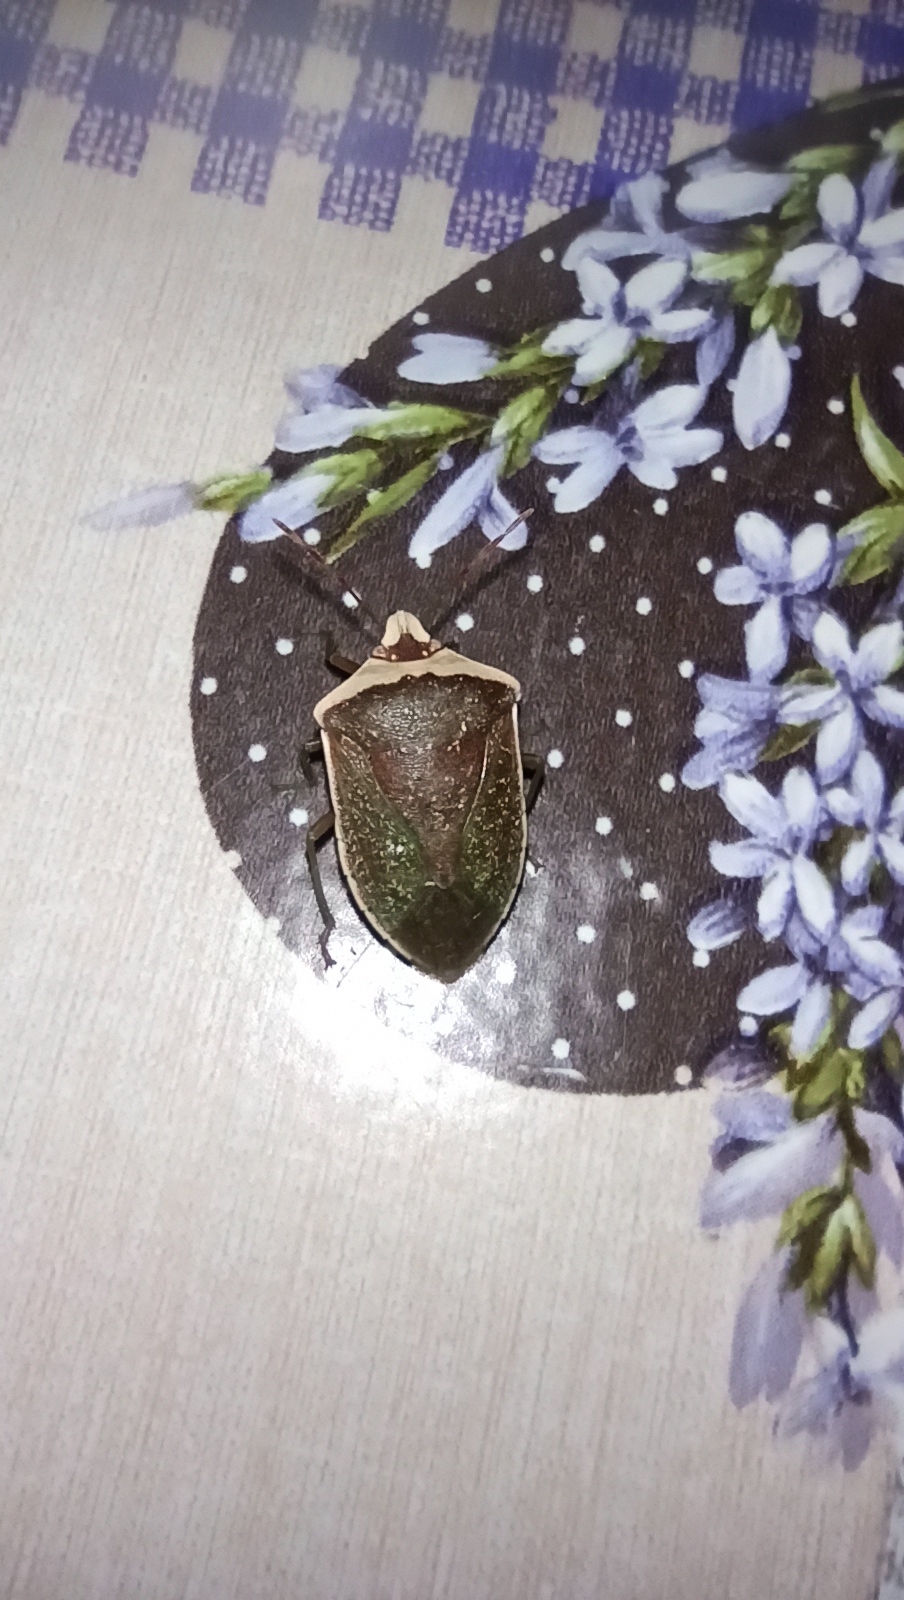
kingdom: Animalia
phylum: Arthropoda
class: Insecta
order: Hemiptera
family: Pentatomidae
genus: Nezara
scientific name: Nezara viridula
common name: Southern green stink bug
